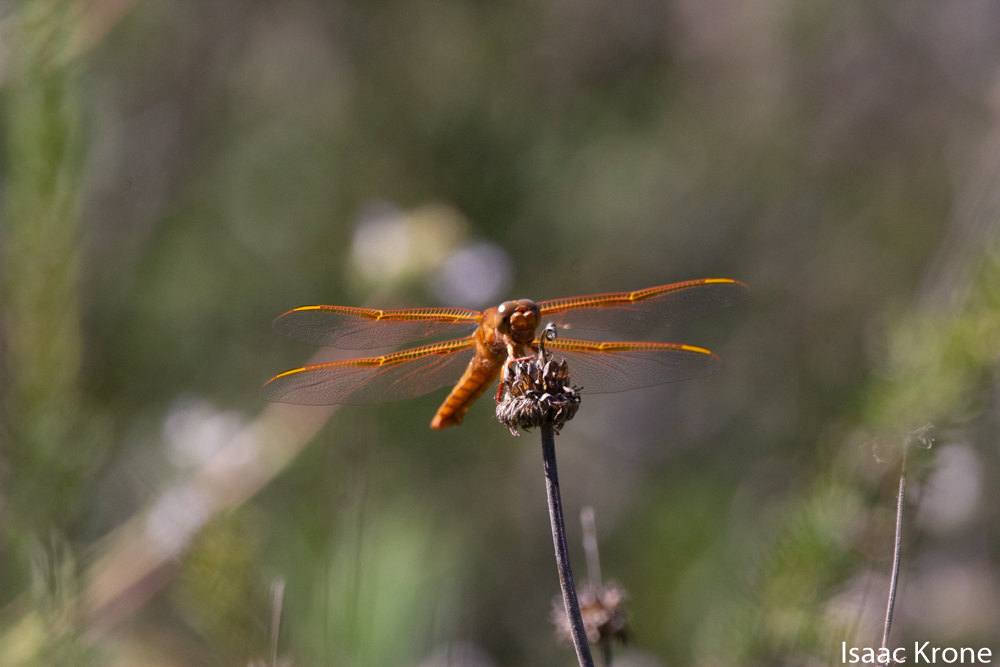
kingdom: Animalia
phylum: Arthropoda
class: Insecta
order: Odonata
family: Libellulidae
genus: Libellula
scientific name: Libellula saturata
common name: Flame skimmer
